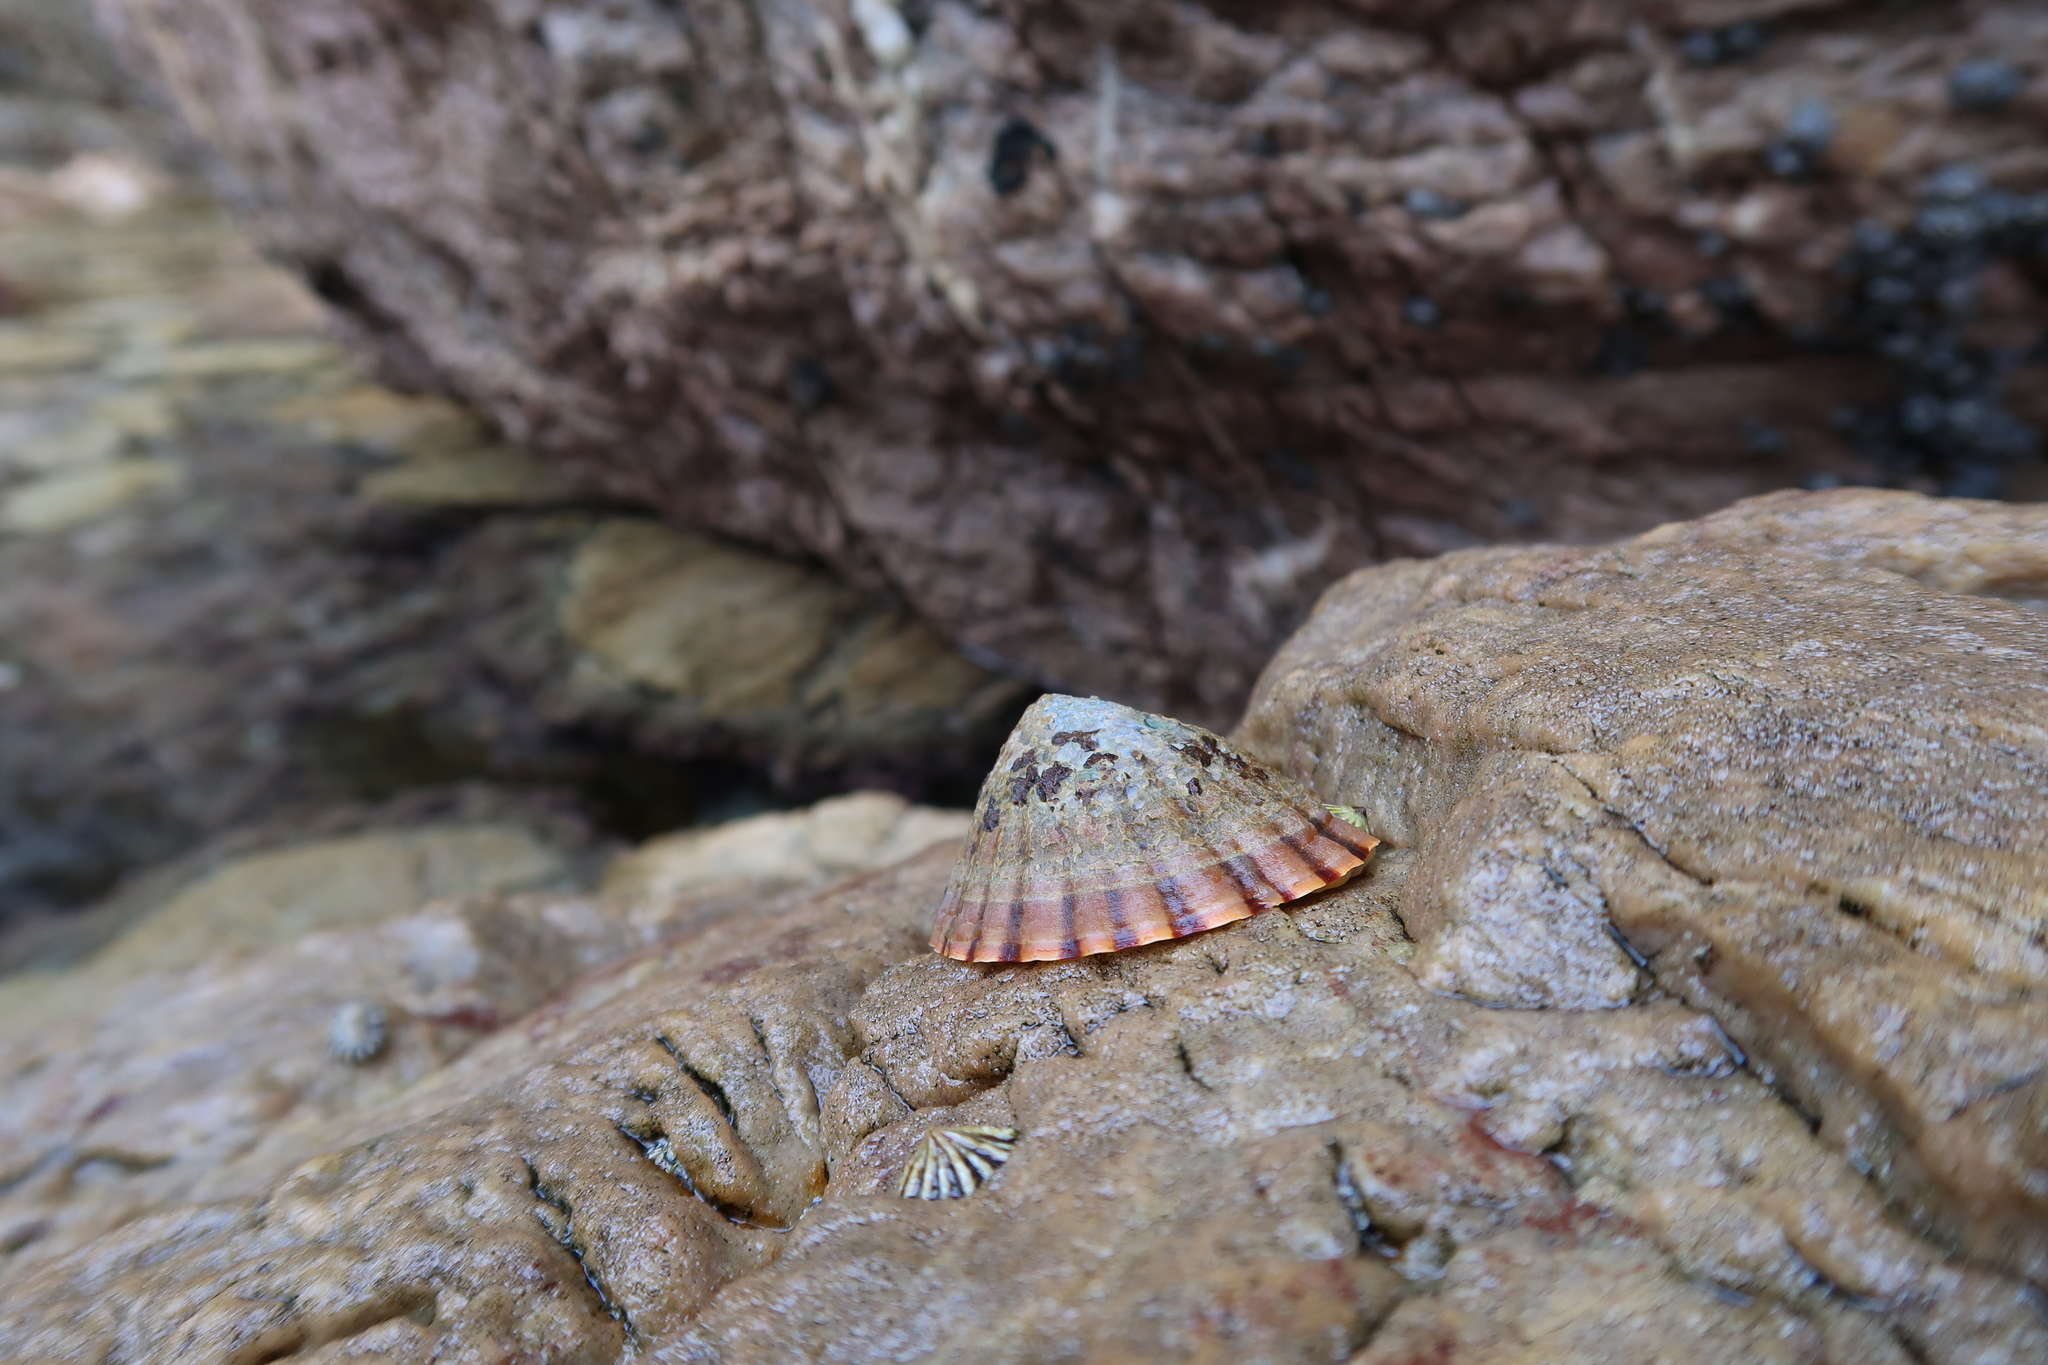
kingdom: Animalia
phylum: Mollusca
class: Gastropoda
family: Nacellidae
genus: Cellana
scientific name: Cellana solida
